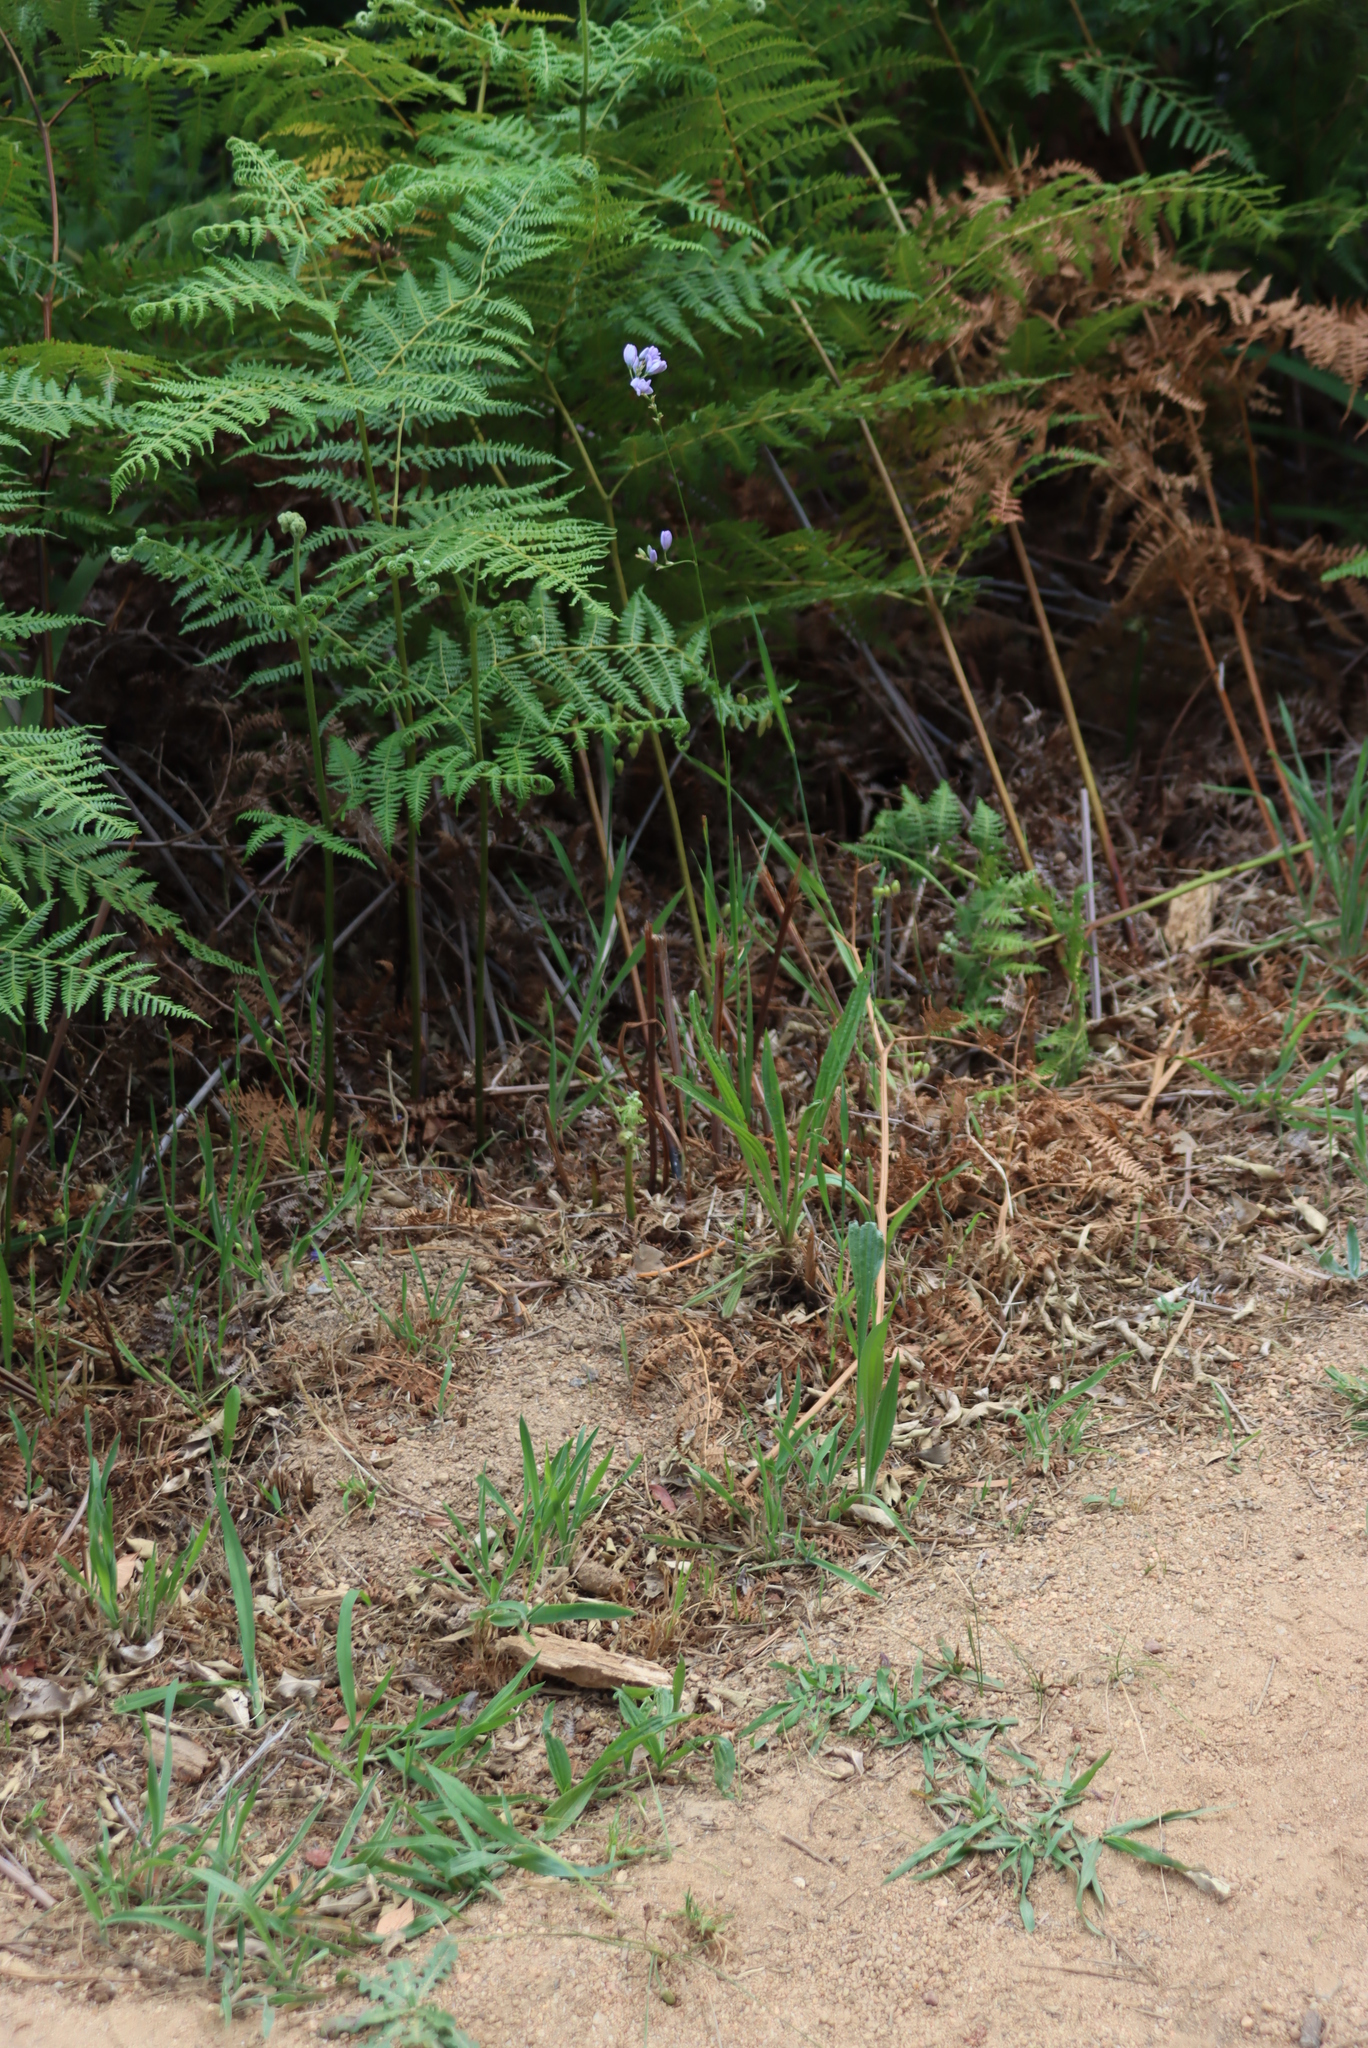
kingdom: Plantae
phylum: Tracheophyta
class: Liliopsida
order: Asparagales
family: Iridaceae
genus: Ixia
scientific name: Ixia polystachya
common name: White-and-yellow-flower cornlily
